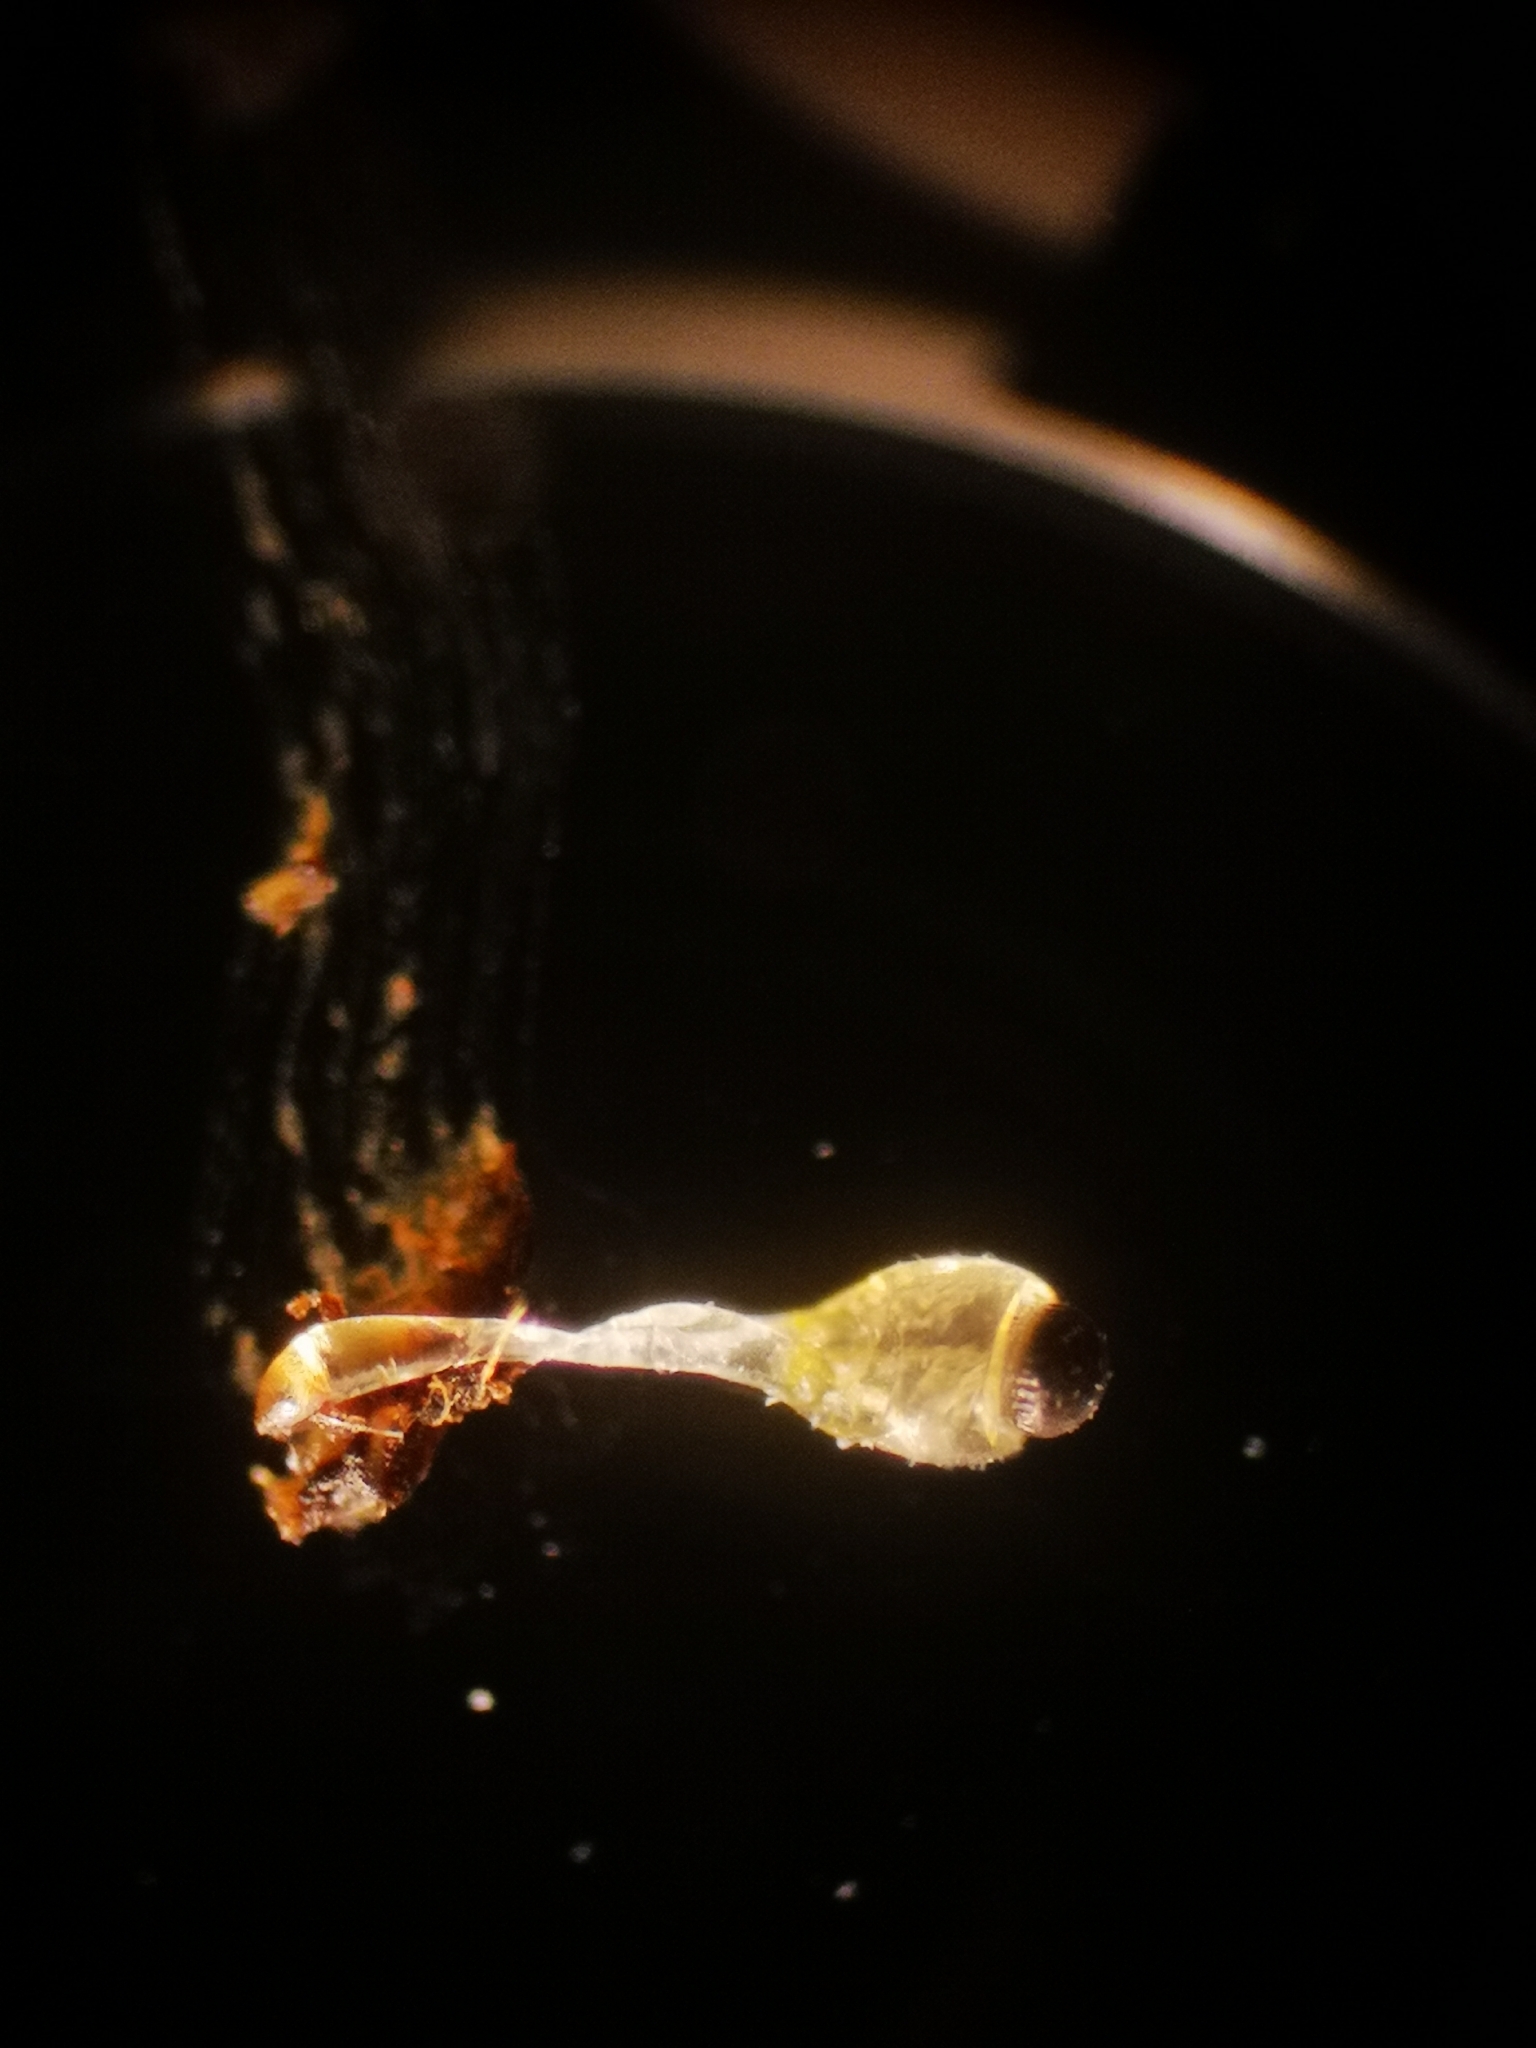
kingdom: Fungi
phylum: Mucoromycota
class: Mucoromycetes
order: Mucorales
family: Pilobolaceae
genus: Pilobolus
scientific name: Pilobolus
